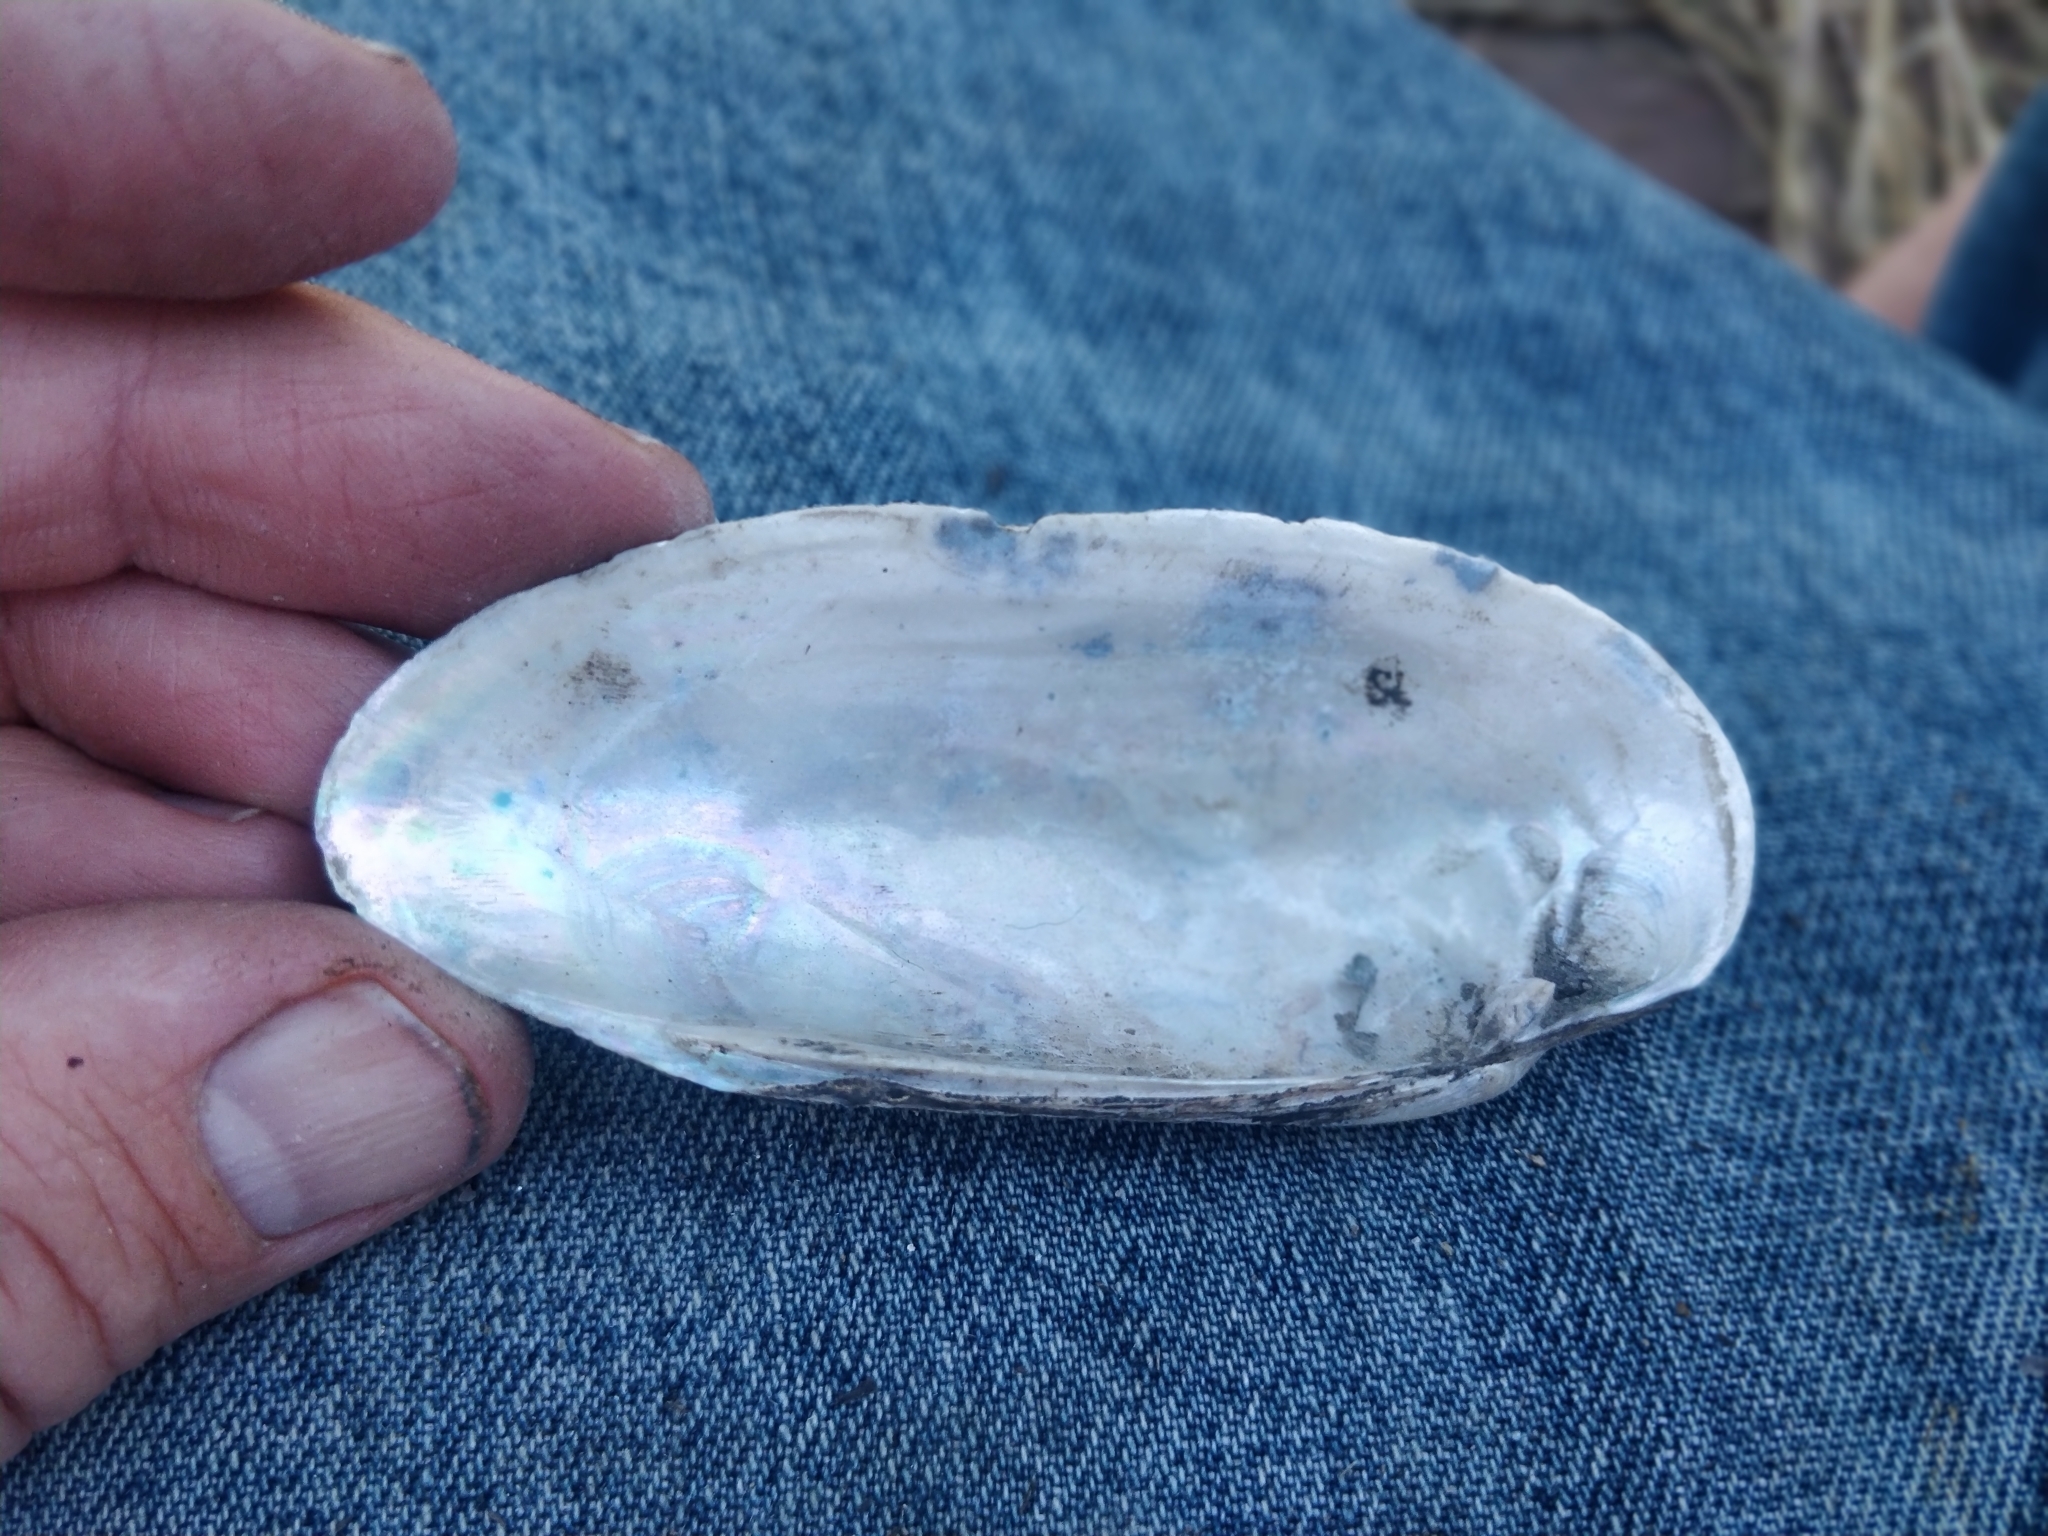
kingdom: Animalia
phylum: Mollusca
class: Bivalvia
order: Unionida
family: Unionidae
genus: Lampsilis
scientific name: Lampsilis teres
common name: Yellow sandshell
